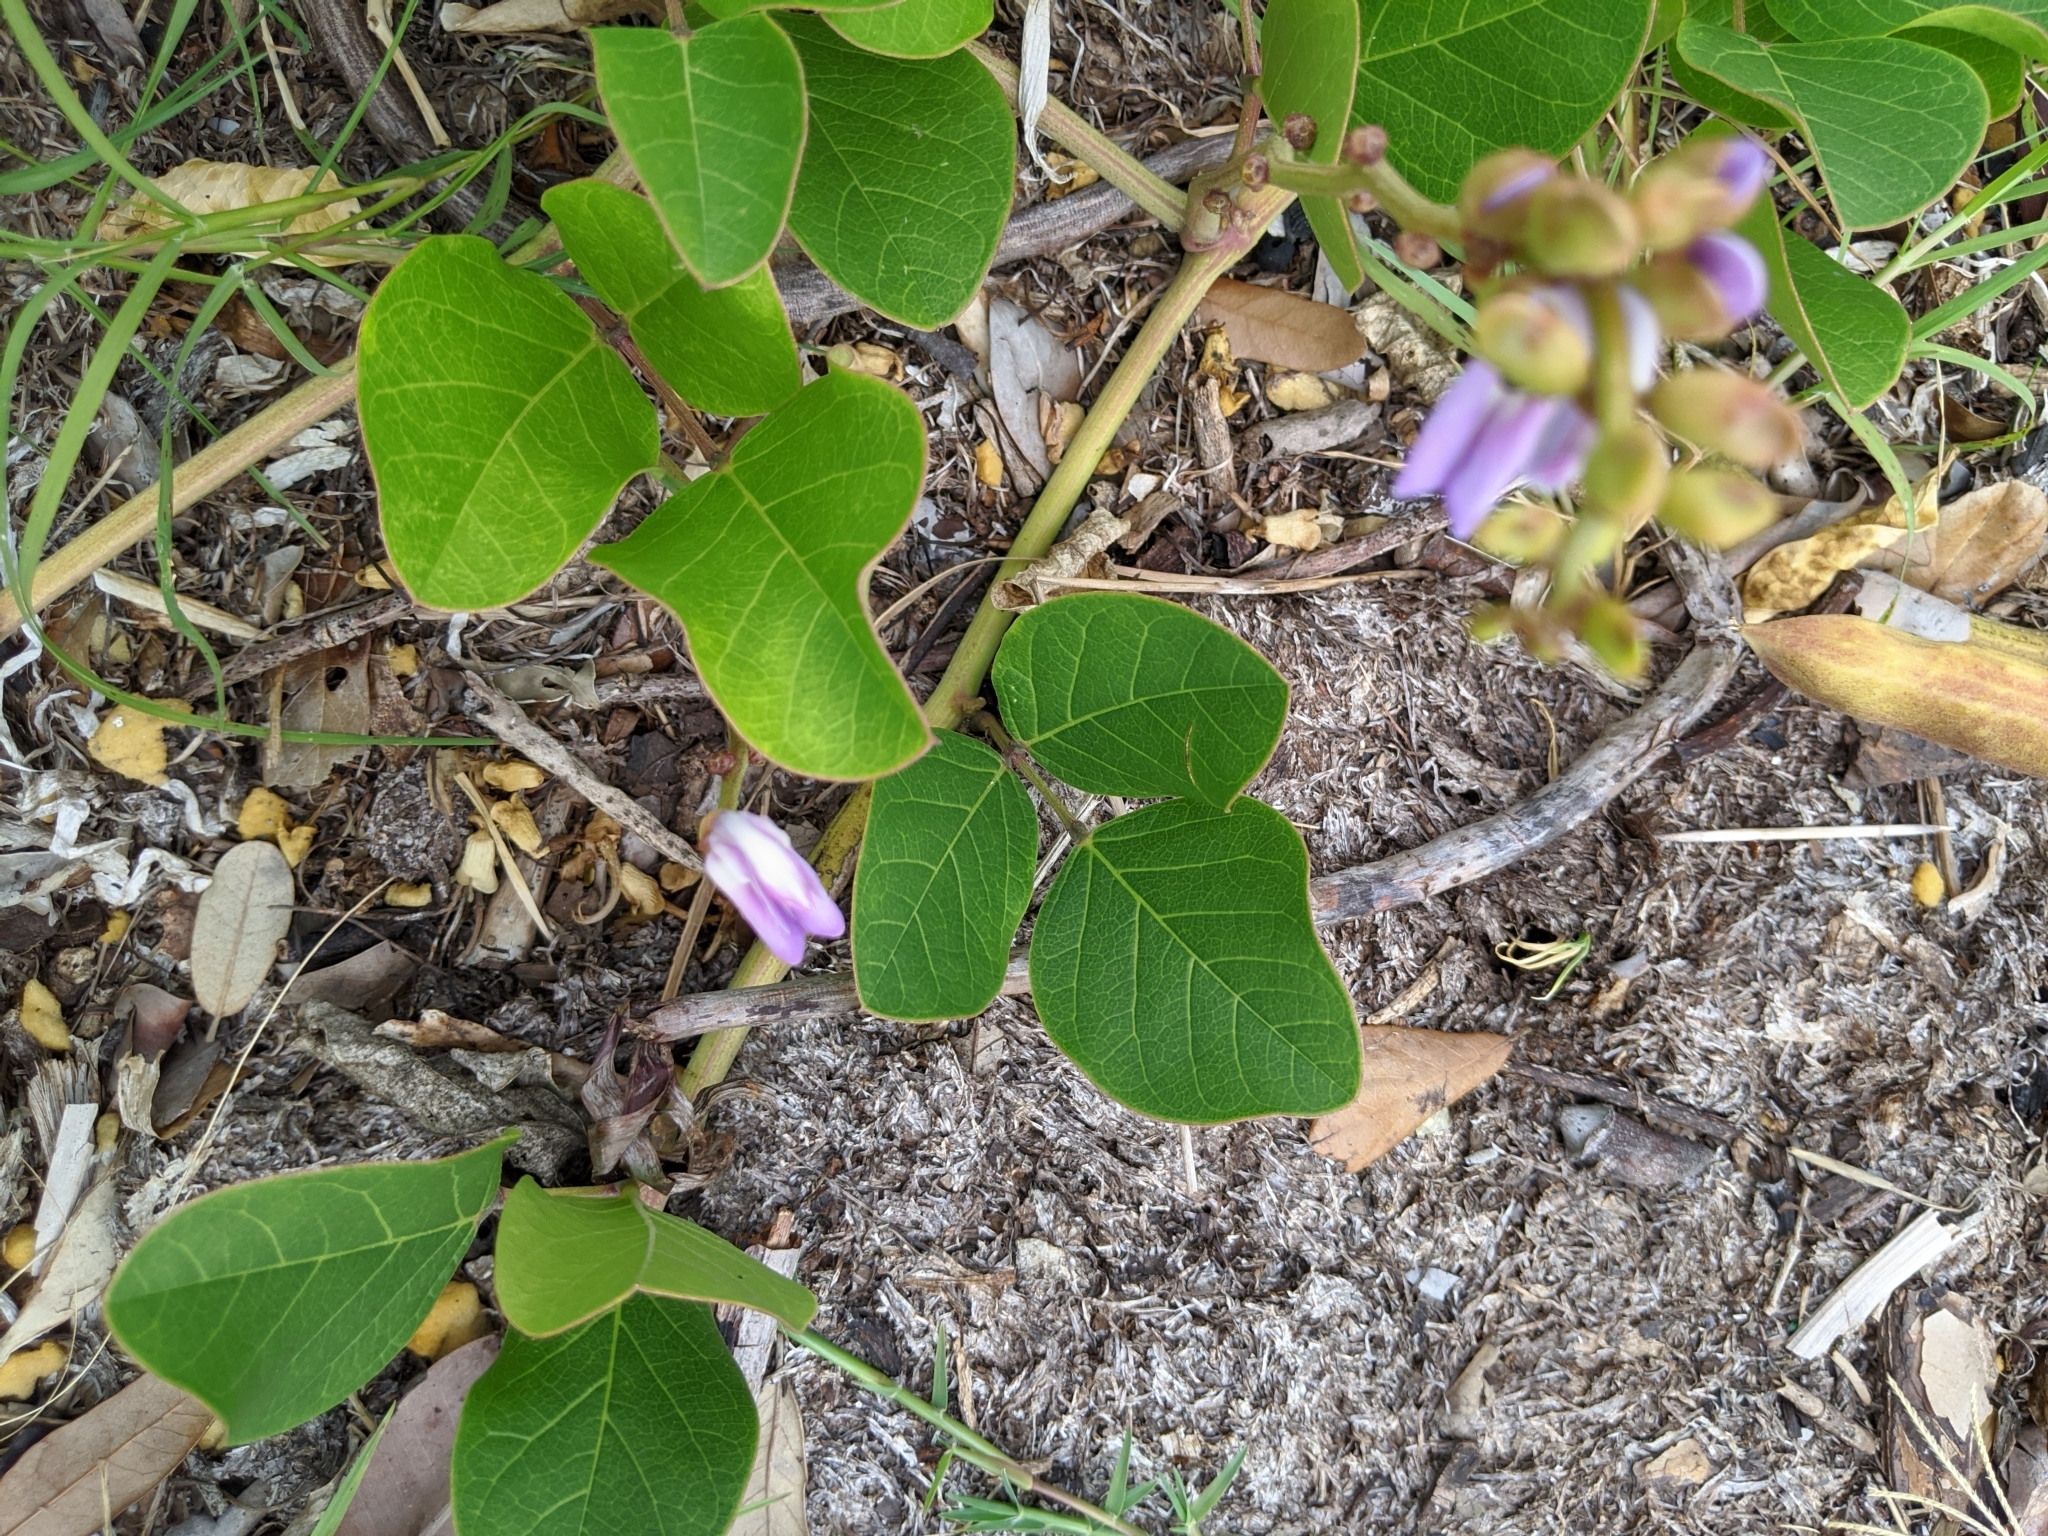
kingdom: Plantae
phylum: Tracheophyta
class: Magnoliopsida
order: Fabales
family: Fabaceae
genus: Canavalia
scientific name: Canavalia rosea
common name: Beach-bean
